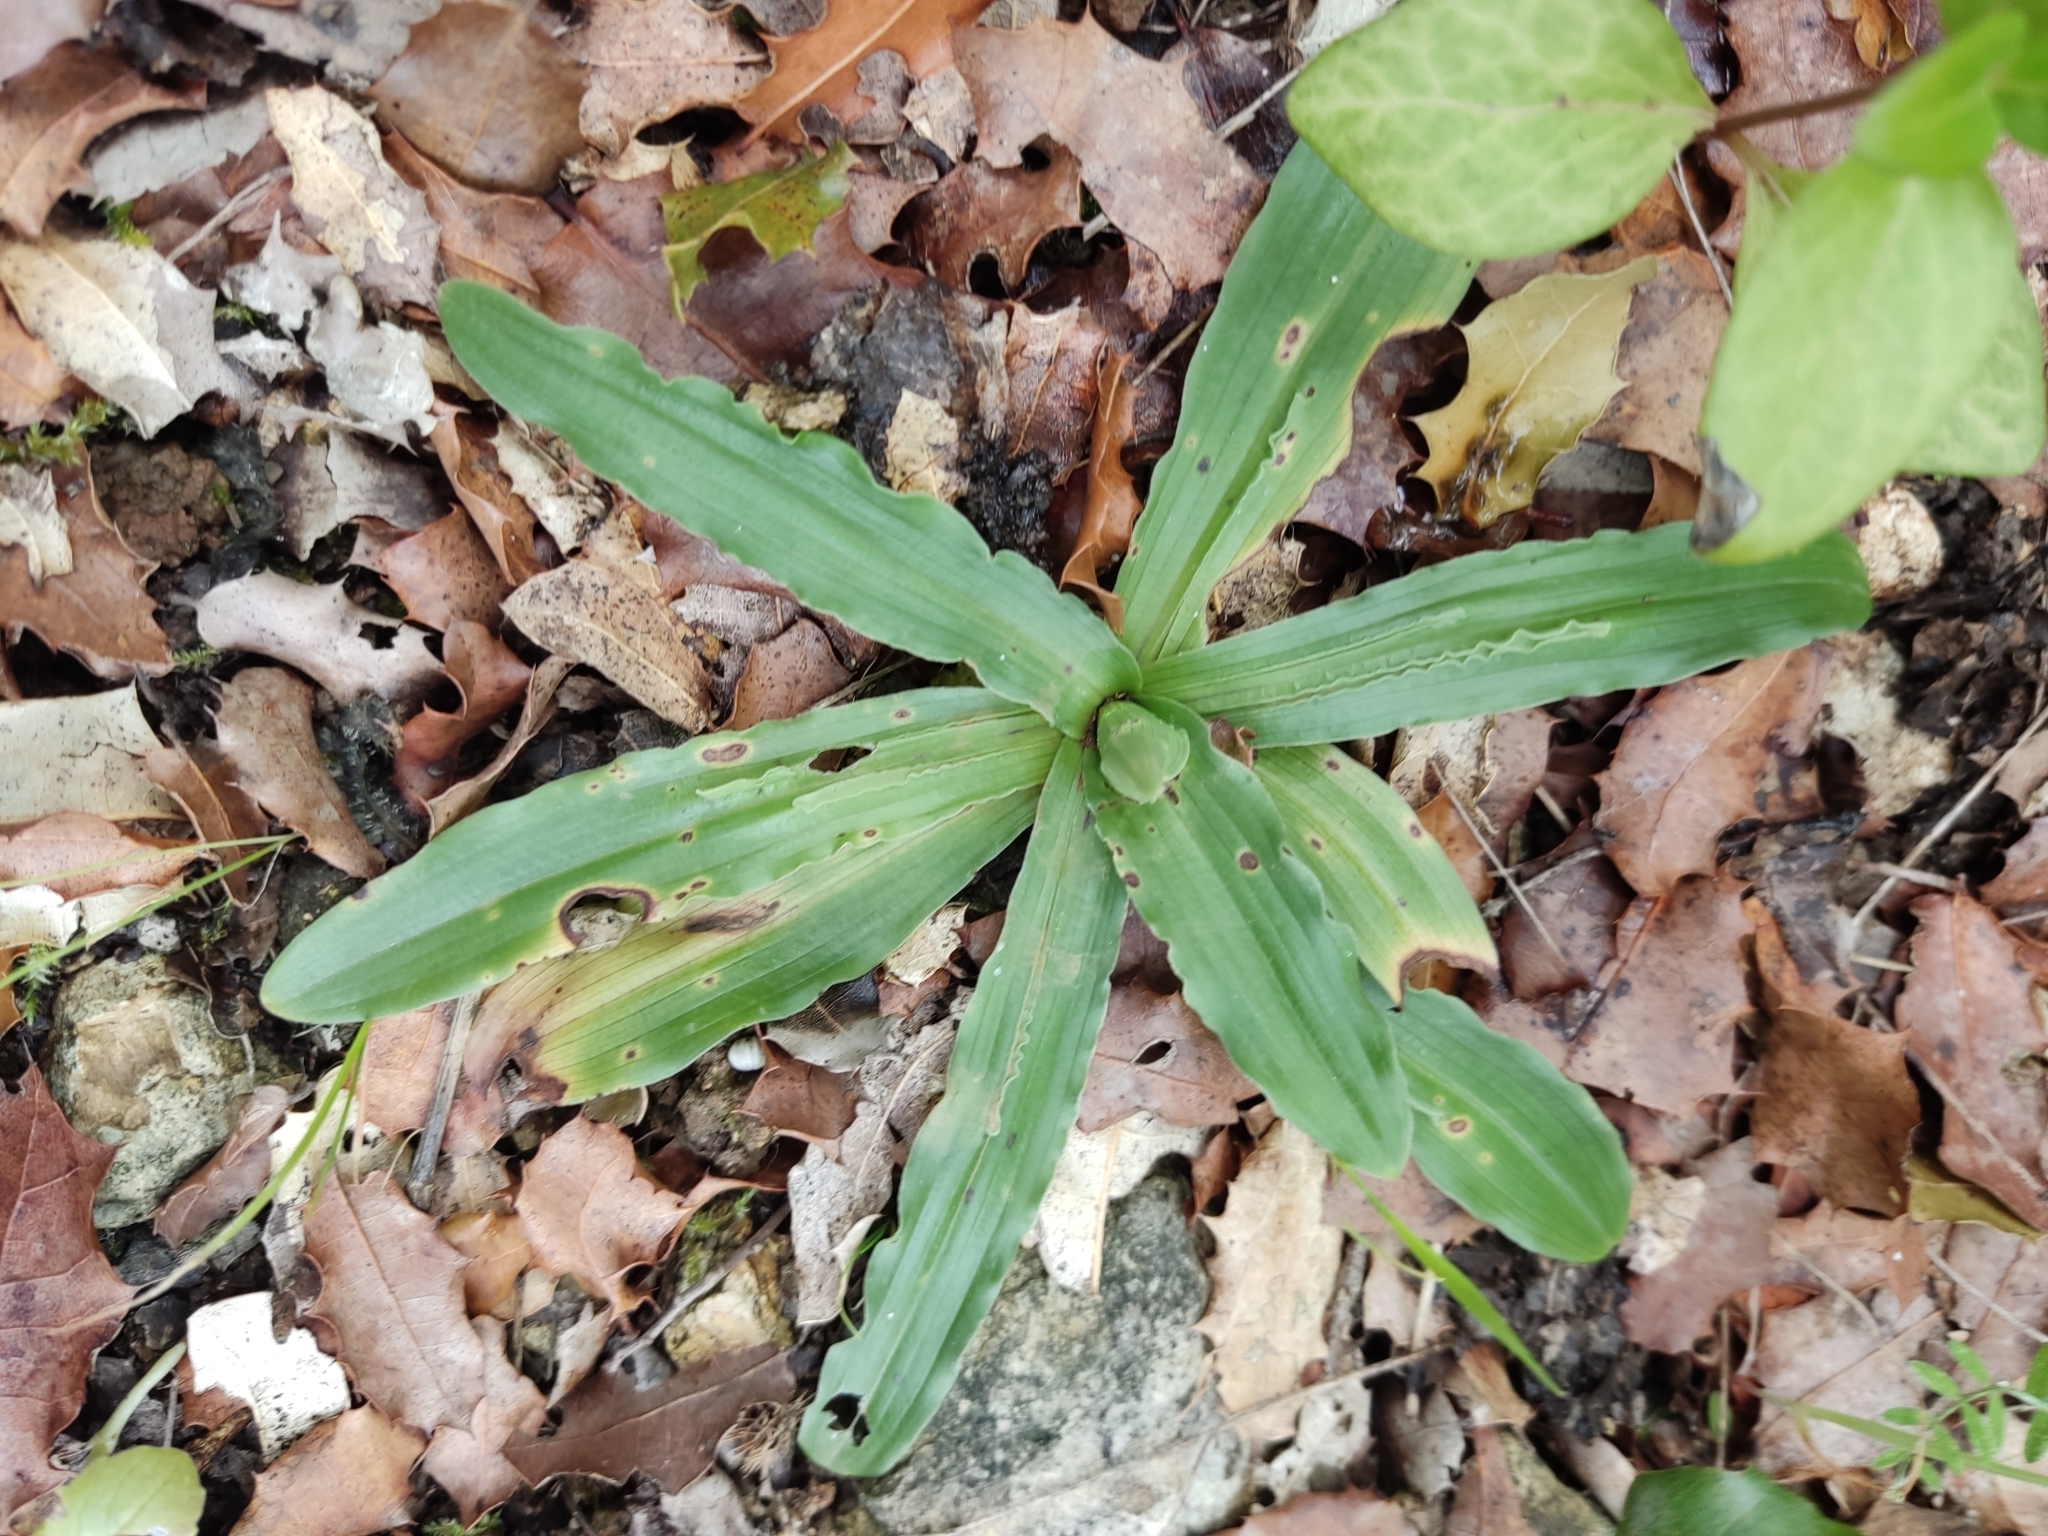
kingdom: Plantae
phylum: Tracheophyta
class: Liliopsida
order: Asparagales
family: Orchidaceae
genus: Orchis
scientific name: Orchis italica
